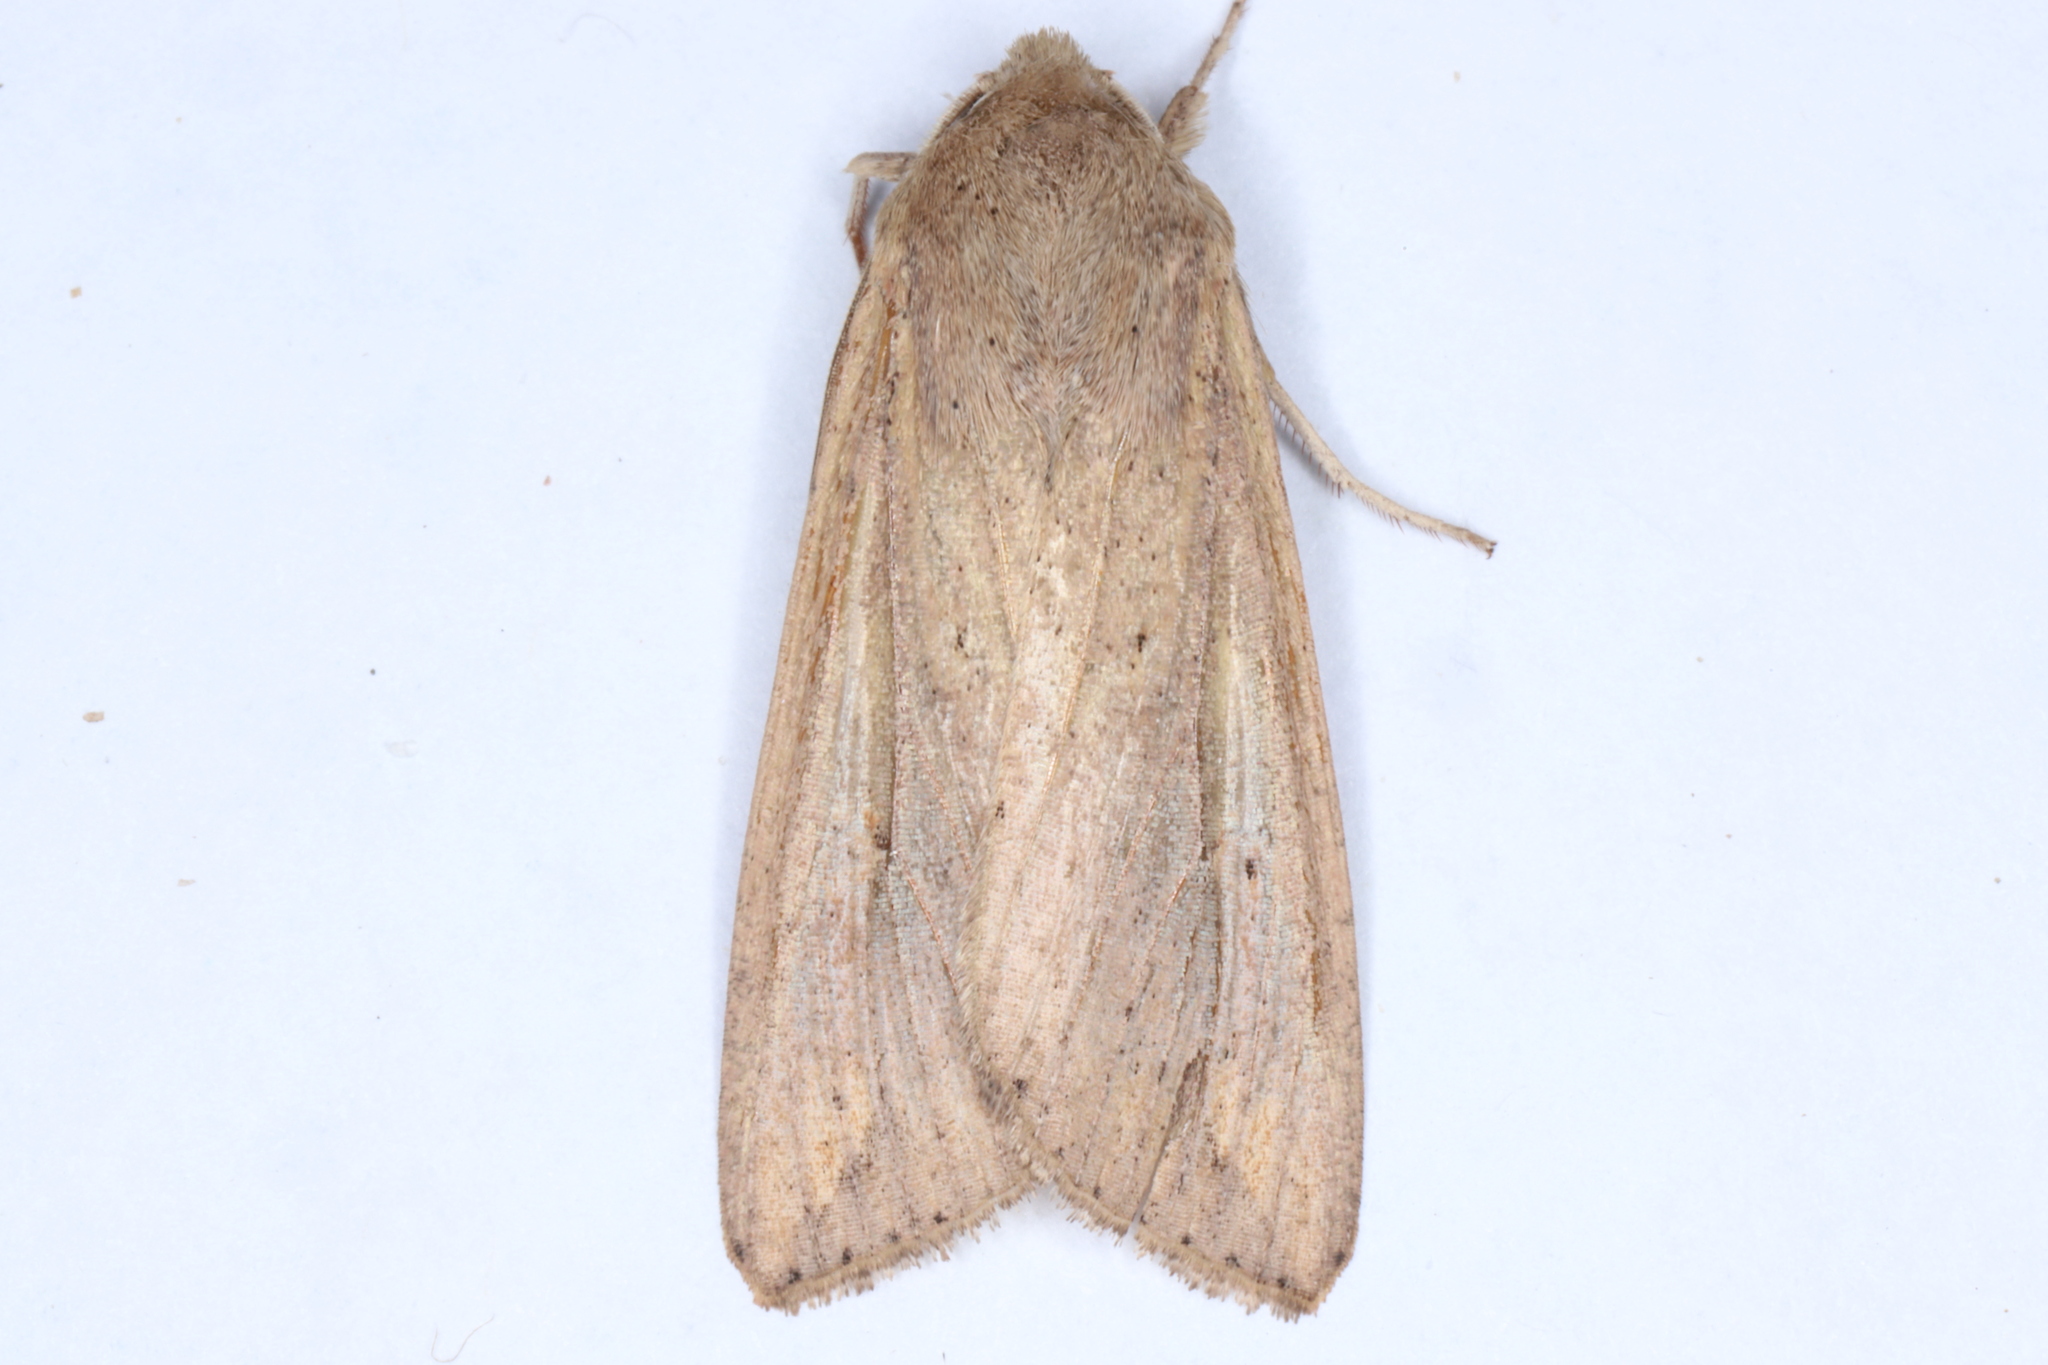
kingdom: Animalia
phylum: Arthropoda
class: Insecta
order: Lepidoptera
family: Noctuidae
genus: Mythimna
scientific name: Mythimna unipuncta
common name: White-speck
